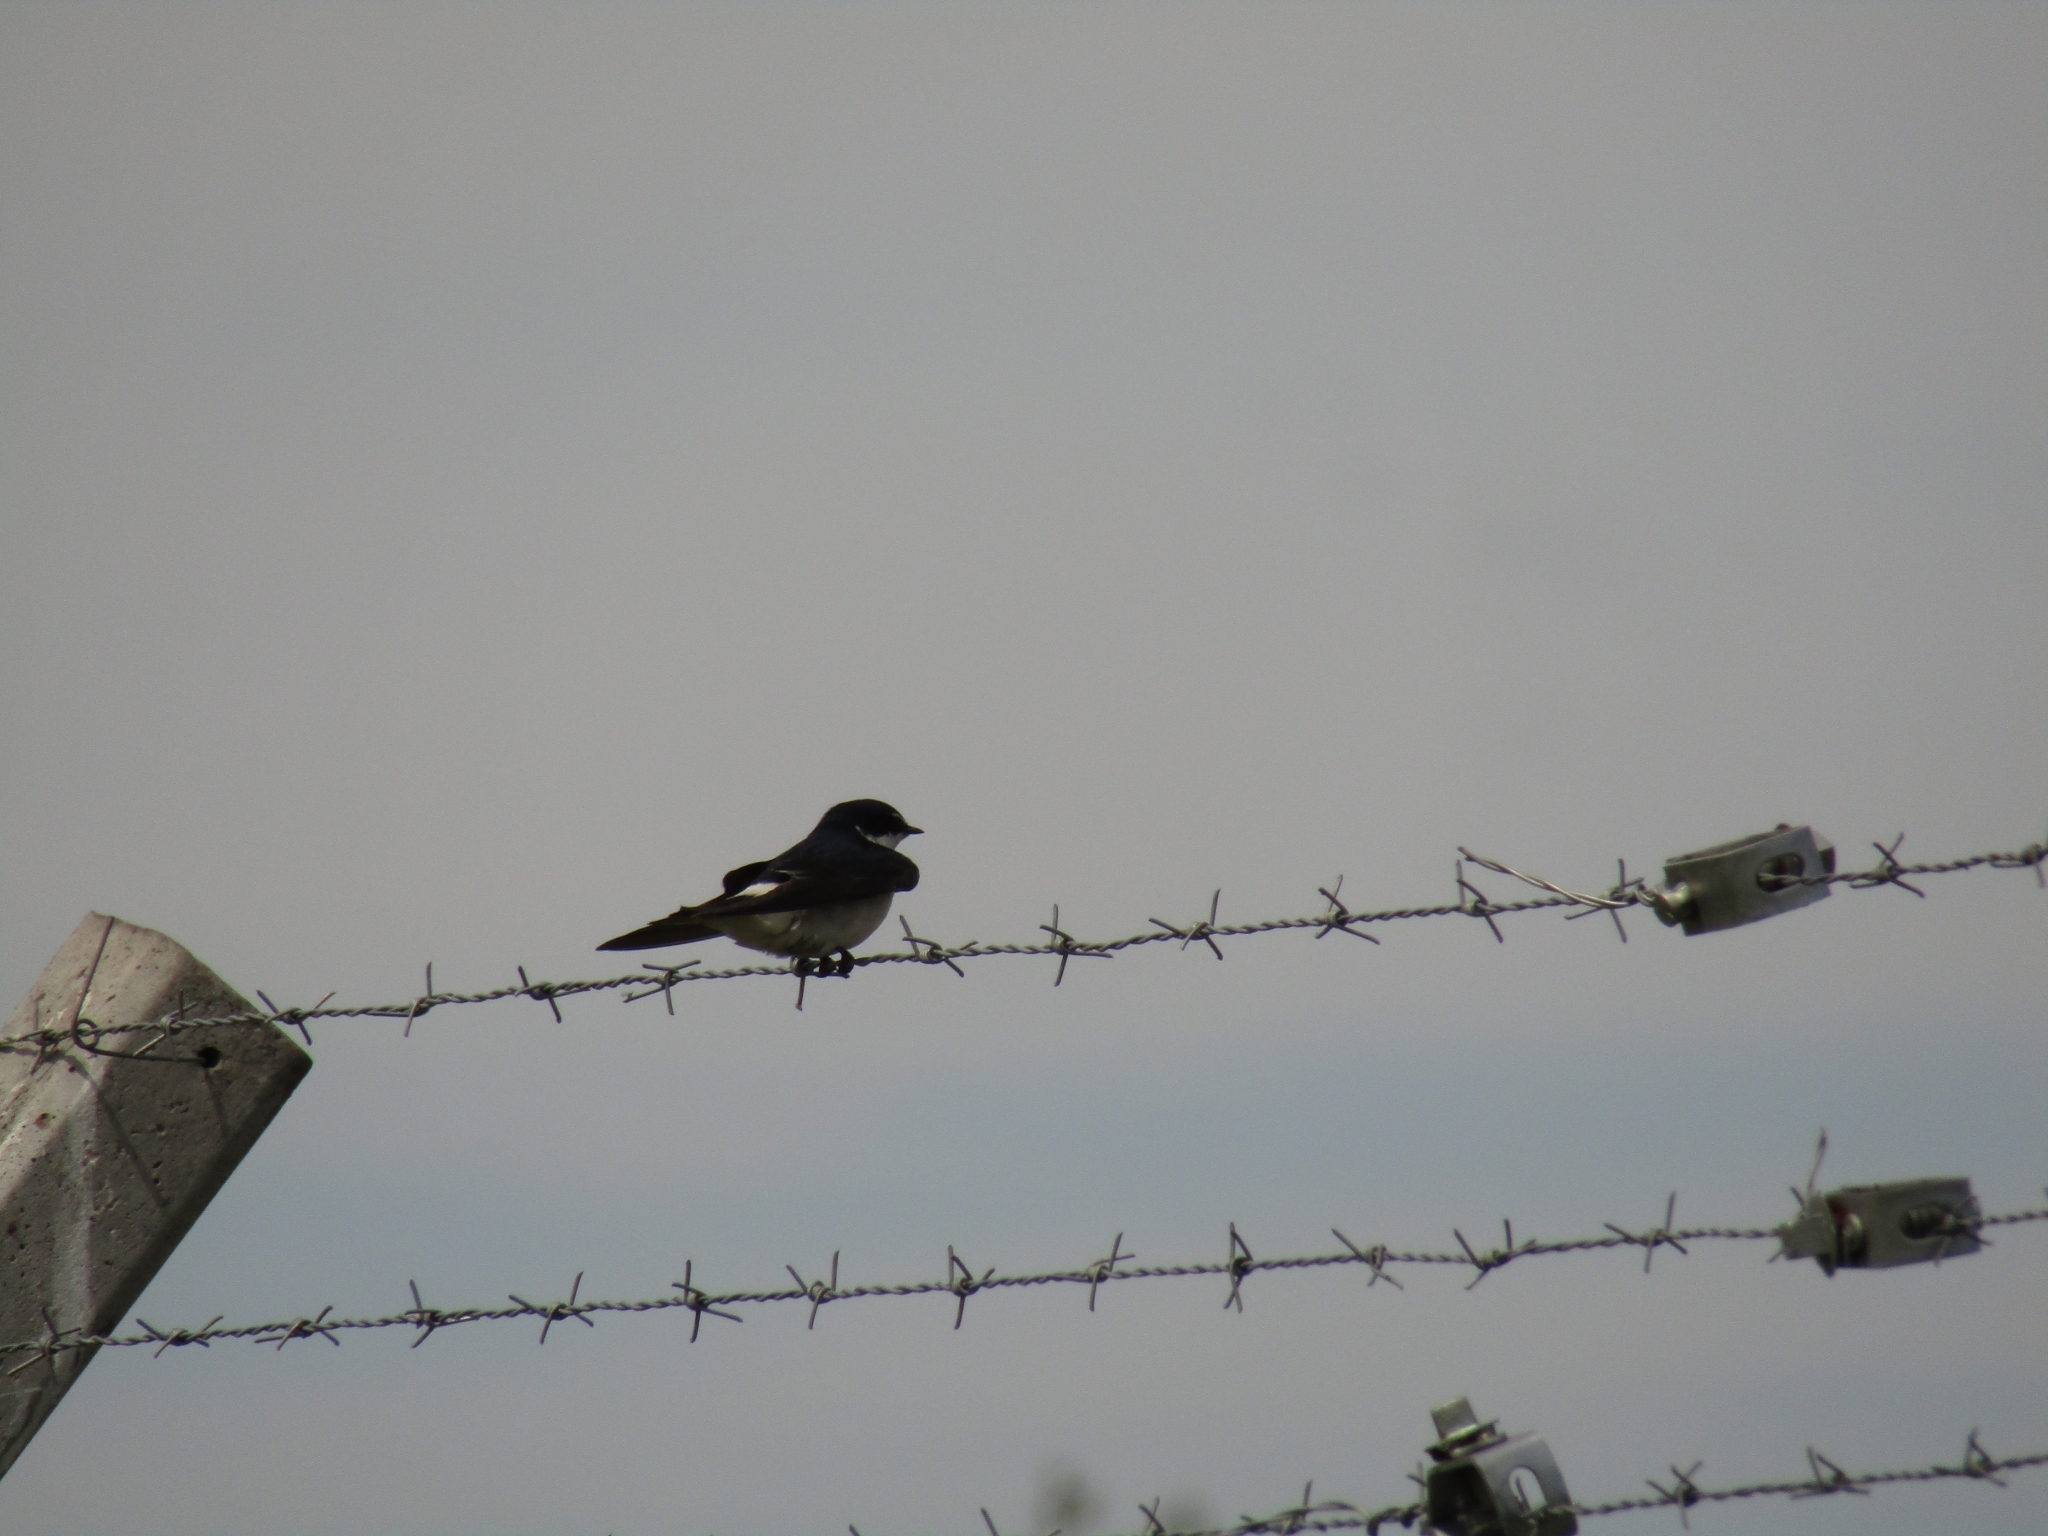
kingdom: Animalia
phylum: Chordata
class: Aves
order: Passeriformes
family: Hirundinidae
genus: Tachycineta
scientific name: Tachycineta leucorrhoa
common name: White-rumped swallow
